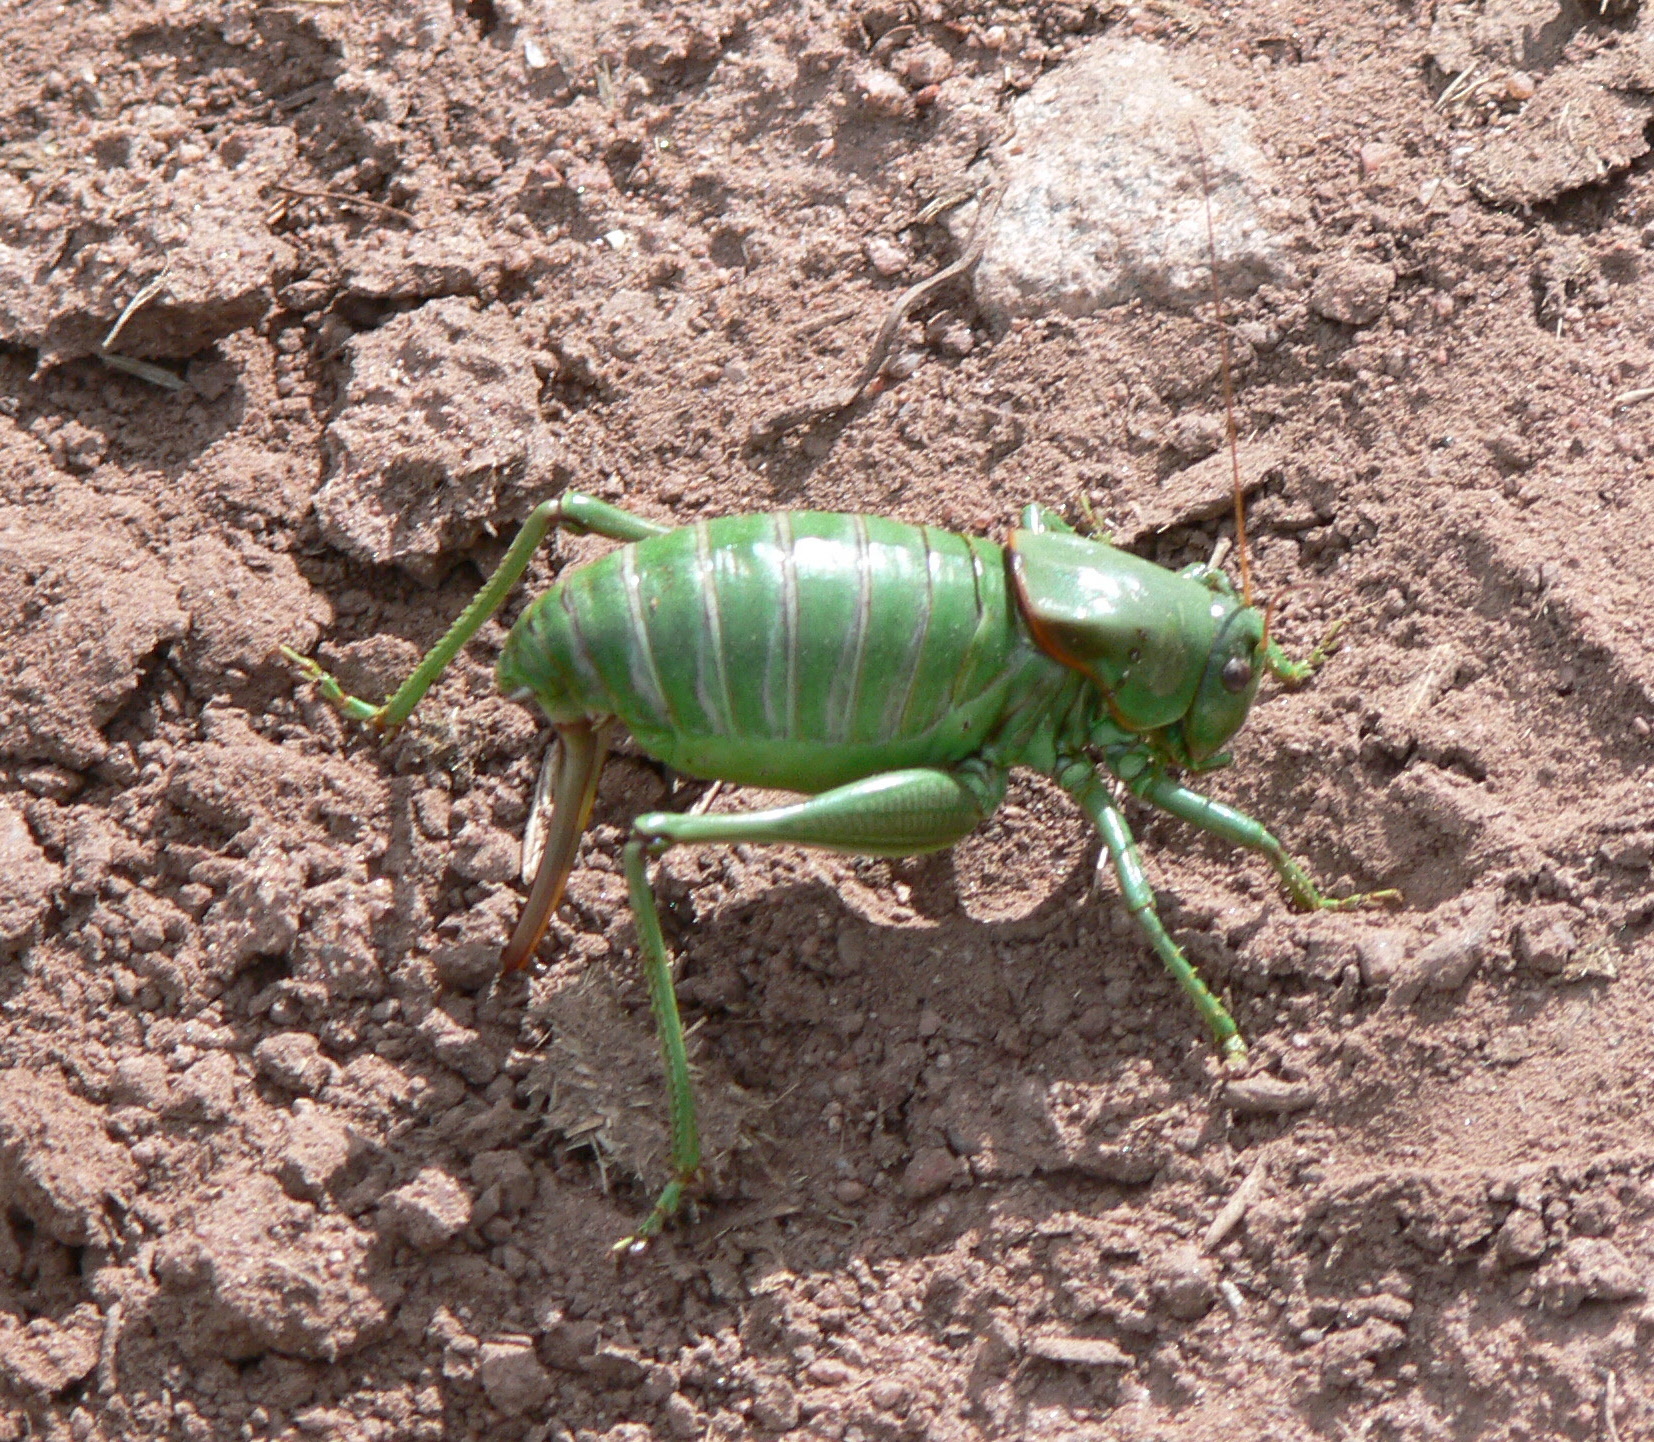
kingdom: Animalia
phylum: Arthropoda
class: Insecta
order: Orthoptera
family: Tettigoniidae
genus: Anabrus
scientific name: Anabrus simplex
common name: Mormon cricket
